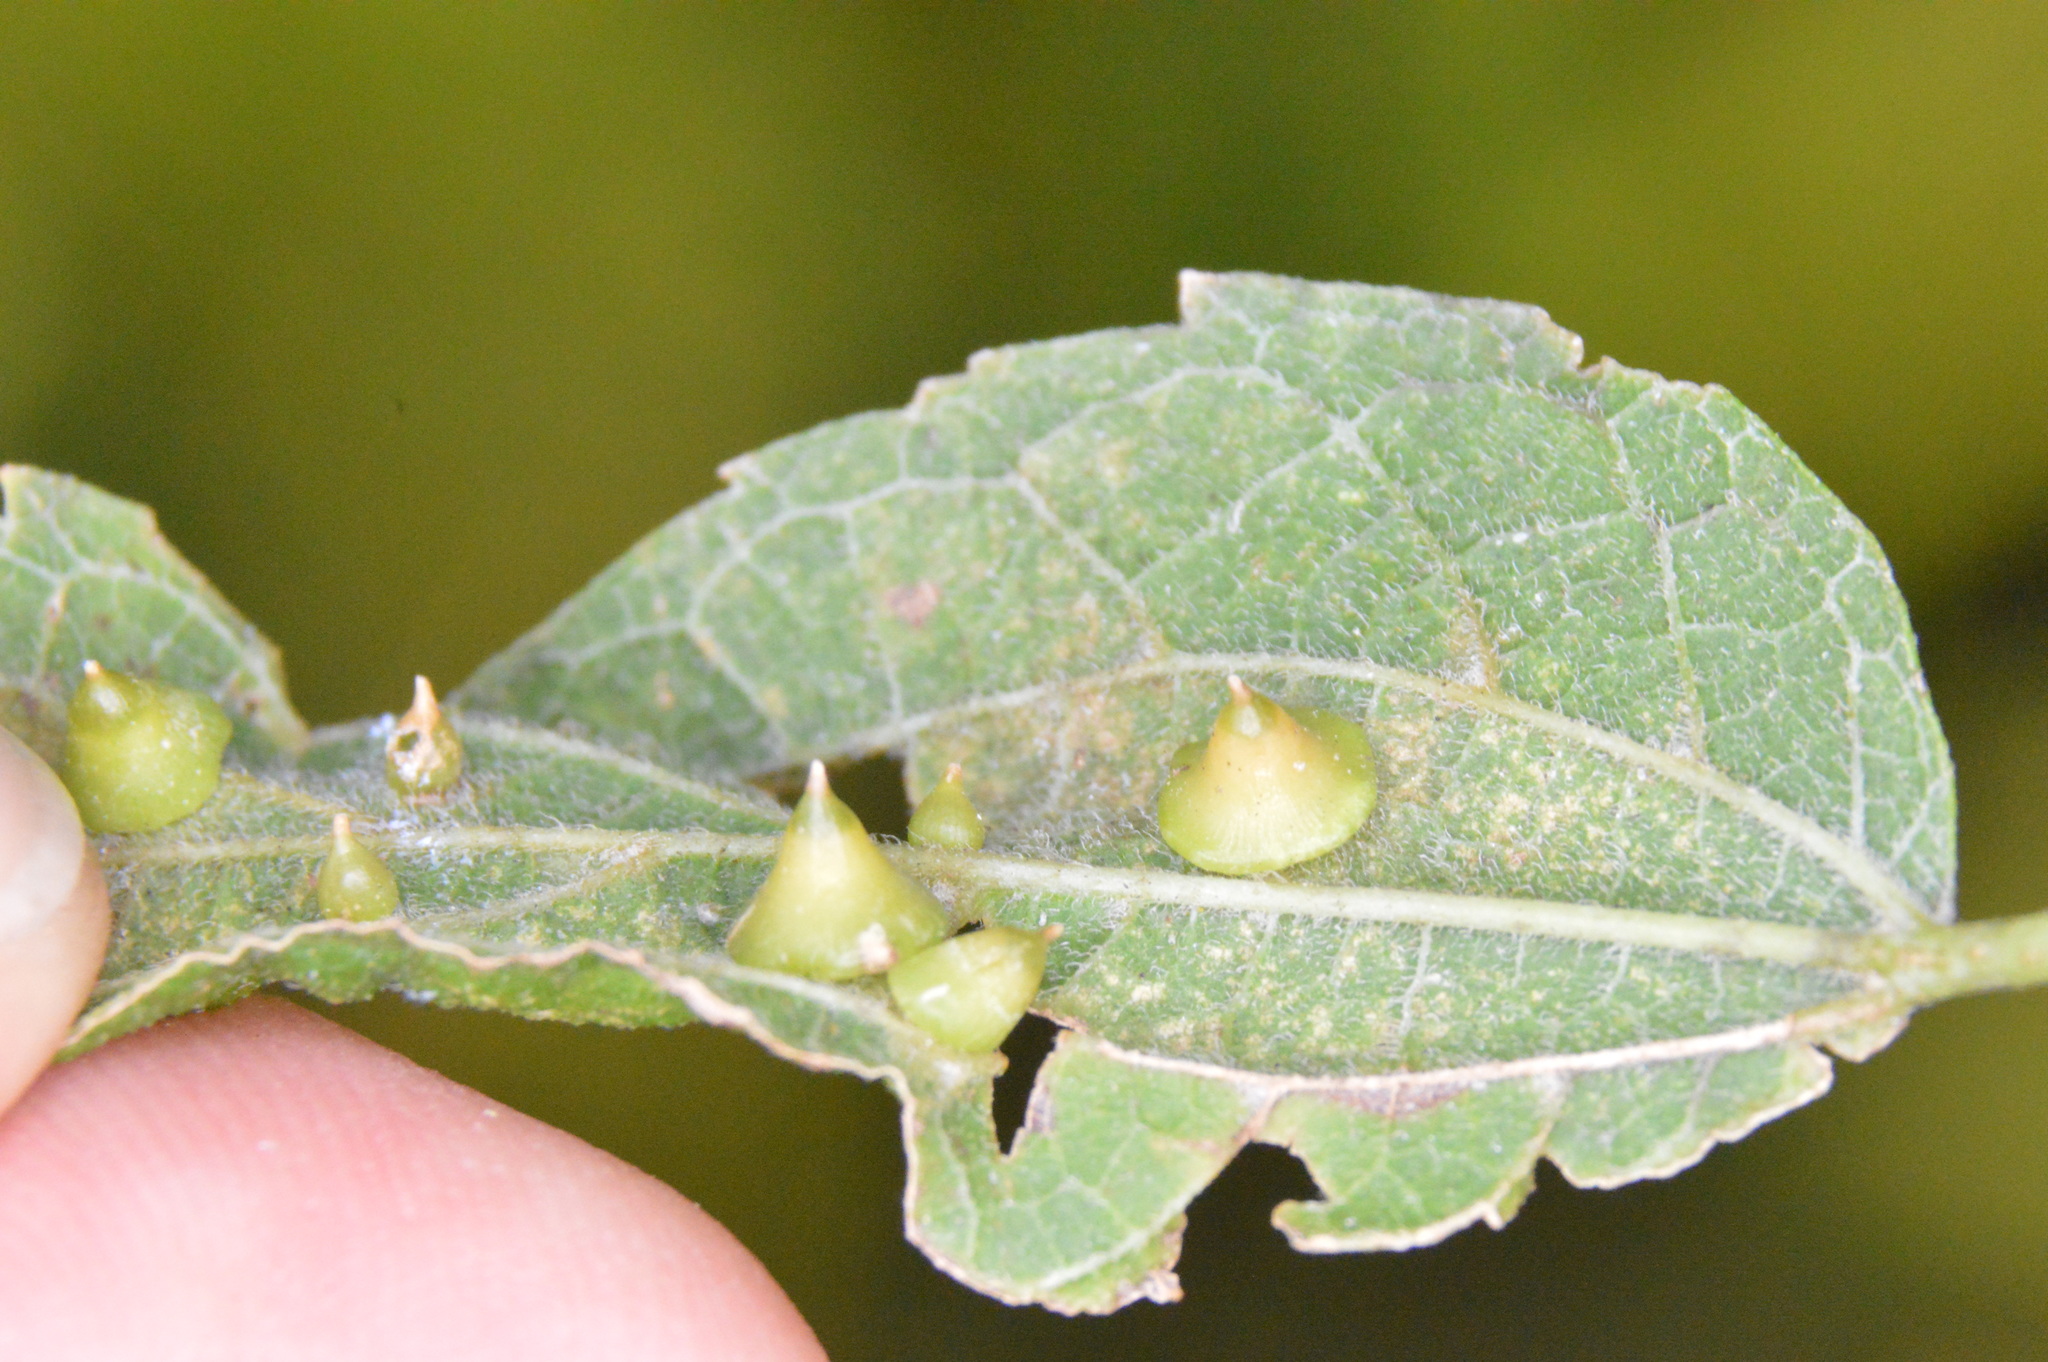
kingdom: Animalia
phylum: Arthropoda
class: Insecta
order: Diptera
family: Cecidomyiidae
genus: Celticecis
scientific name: Celticecis spiniformis
